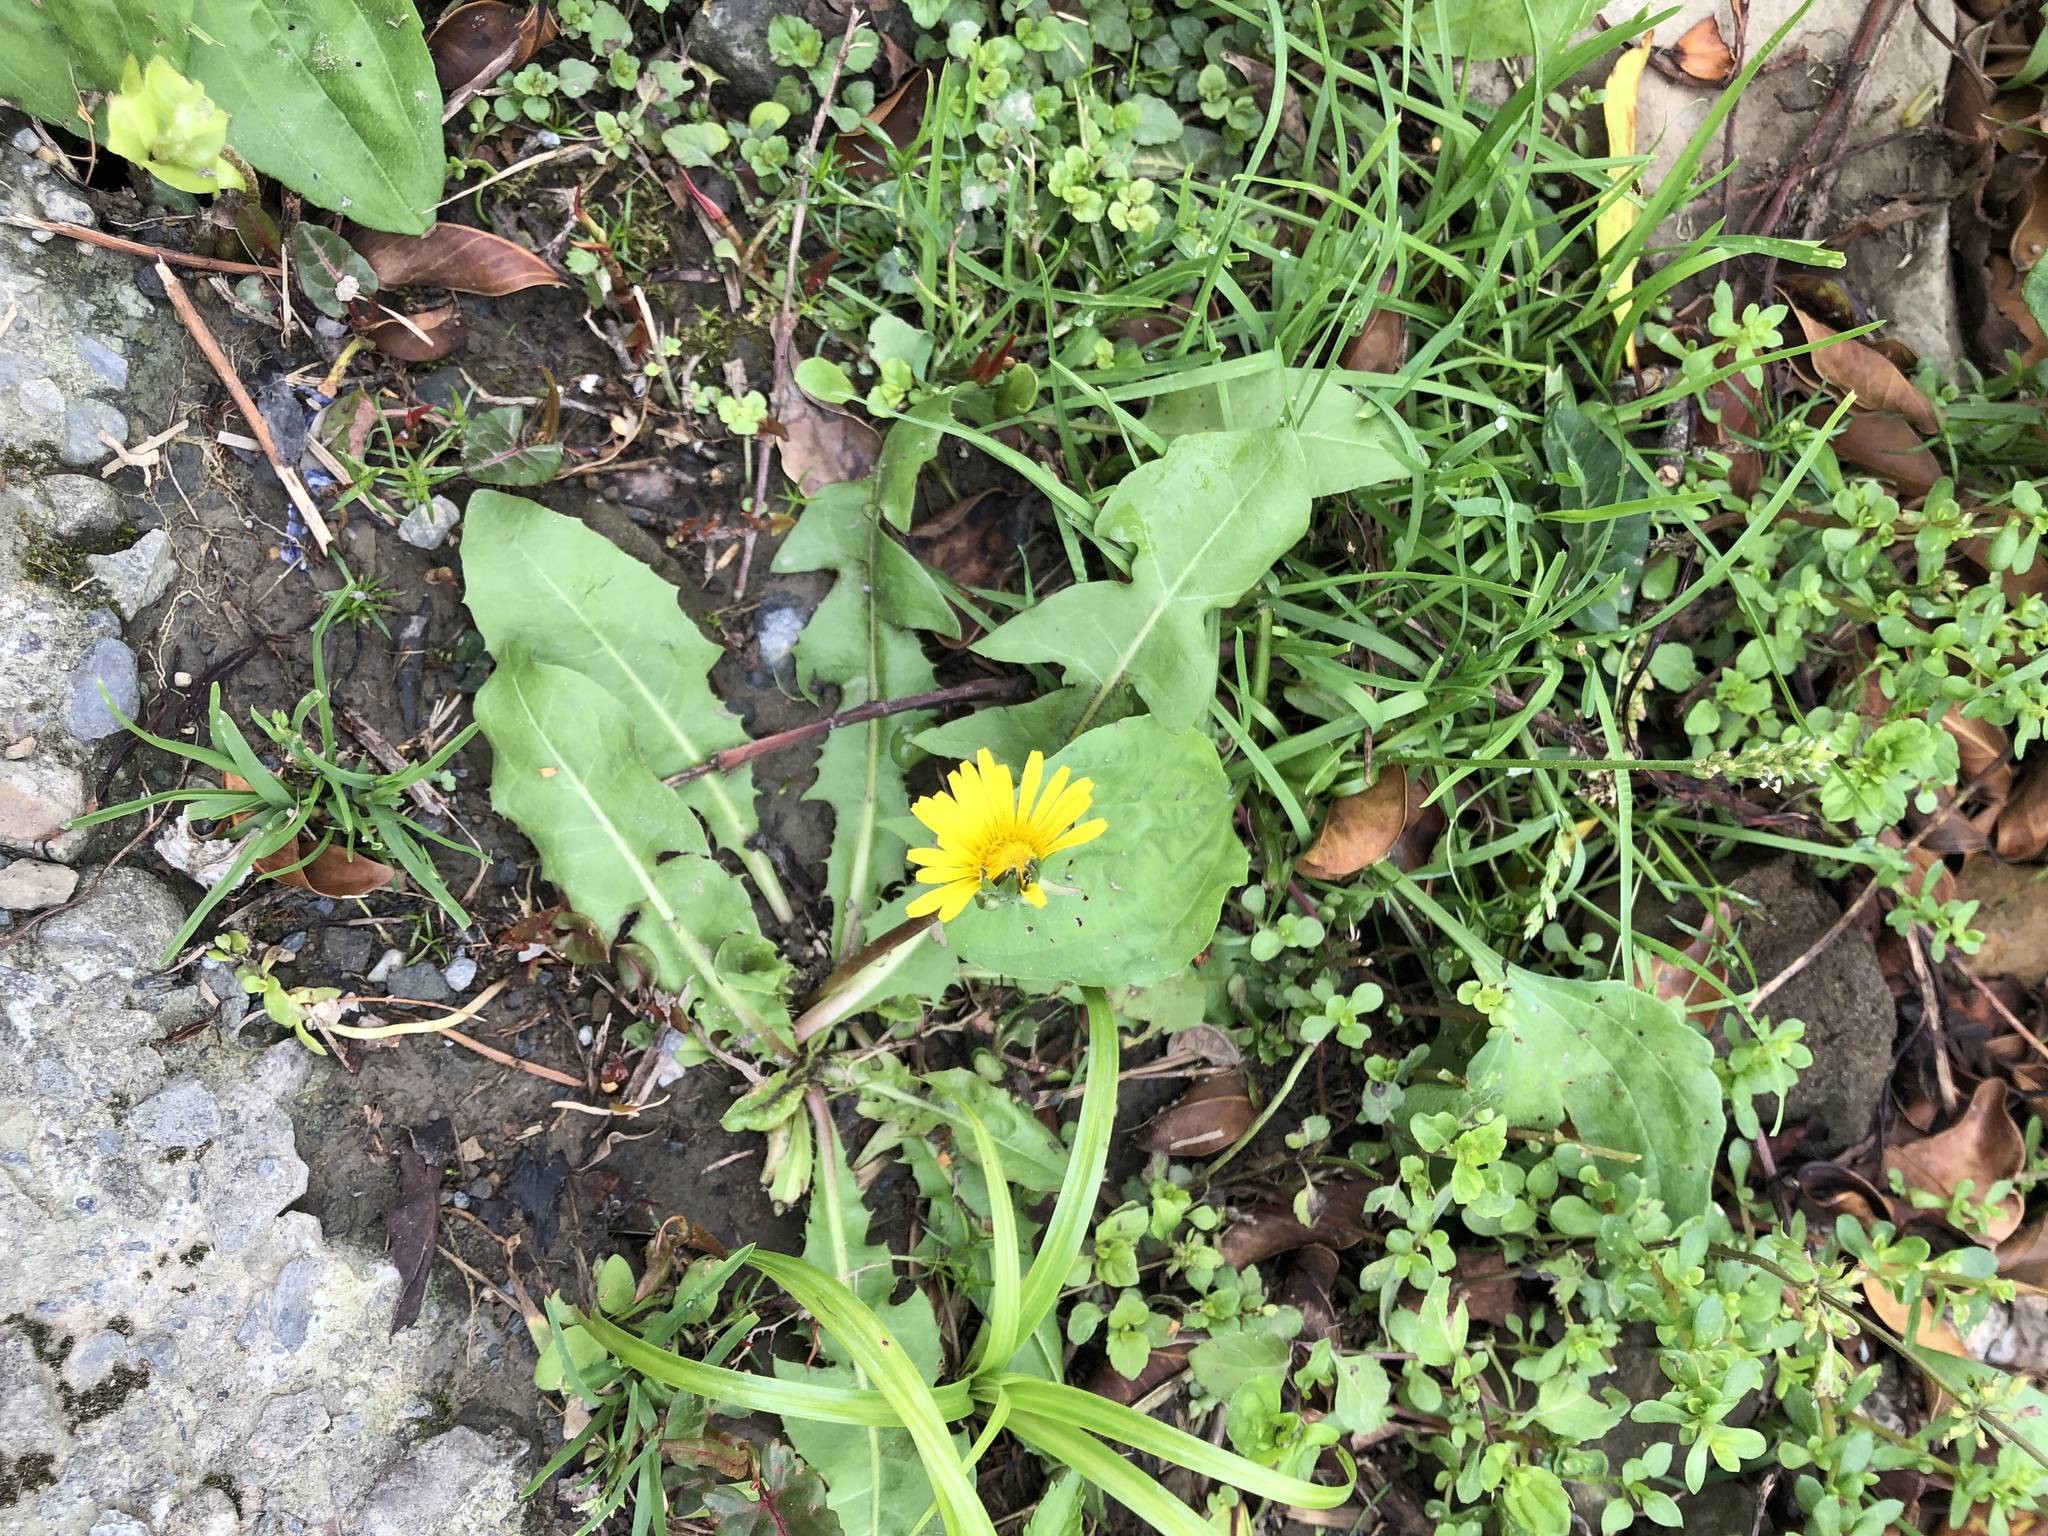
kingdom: Plantae
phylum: Tracheophyta
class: Magnoliopsida
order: Asterales
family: Asteraceae
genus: Taraxacum
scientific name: Taraxacum officinale
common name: Common dandelion
